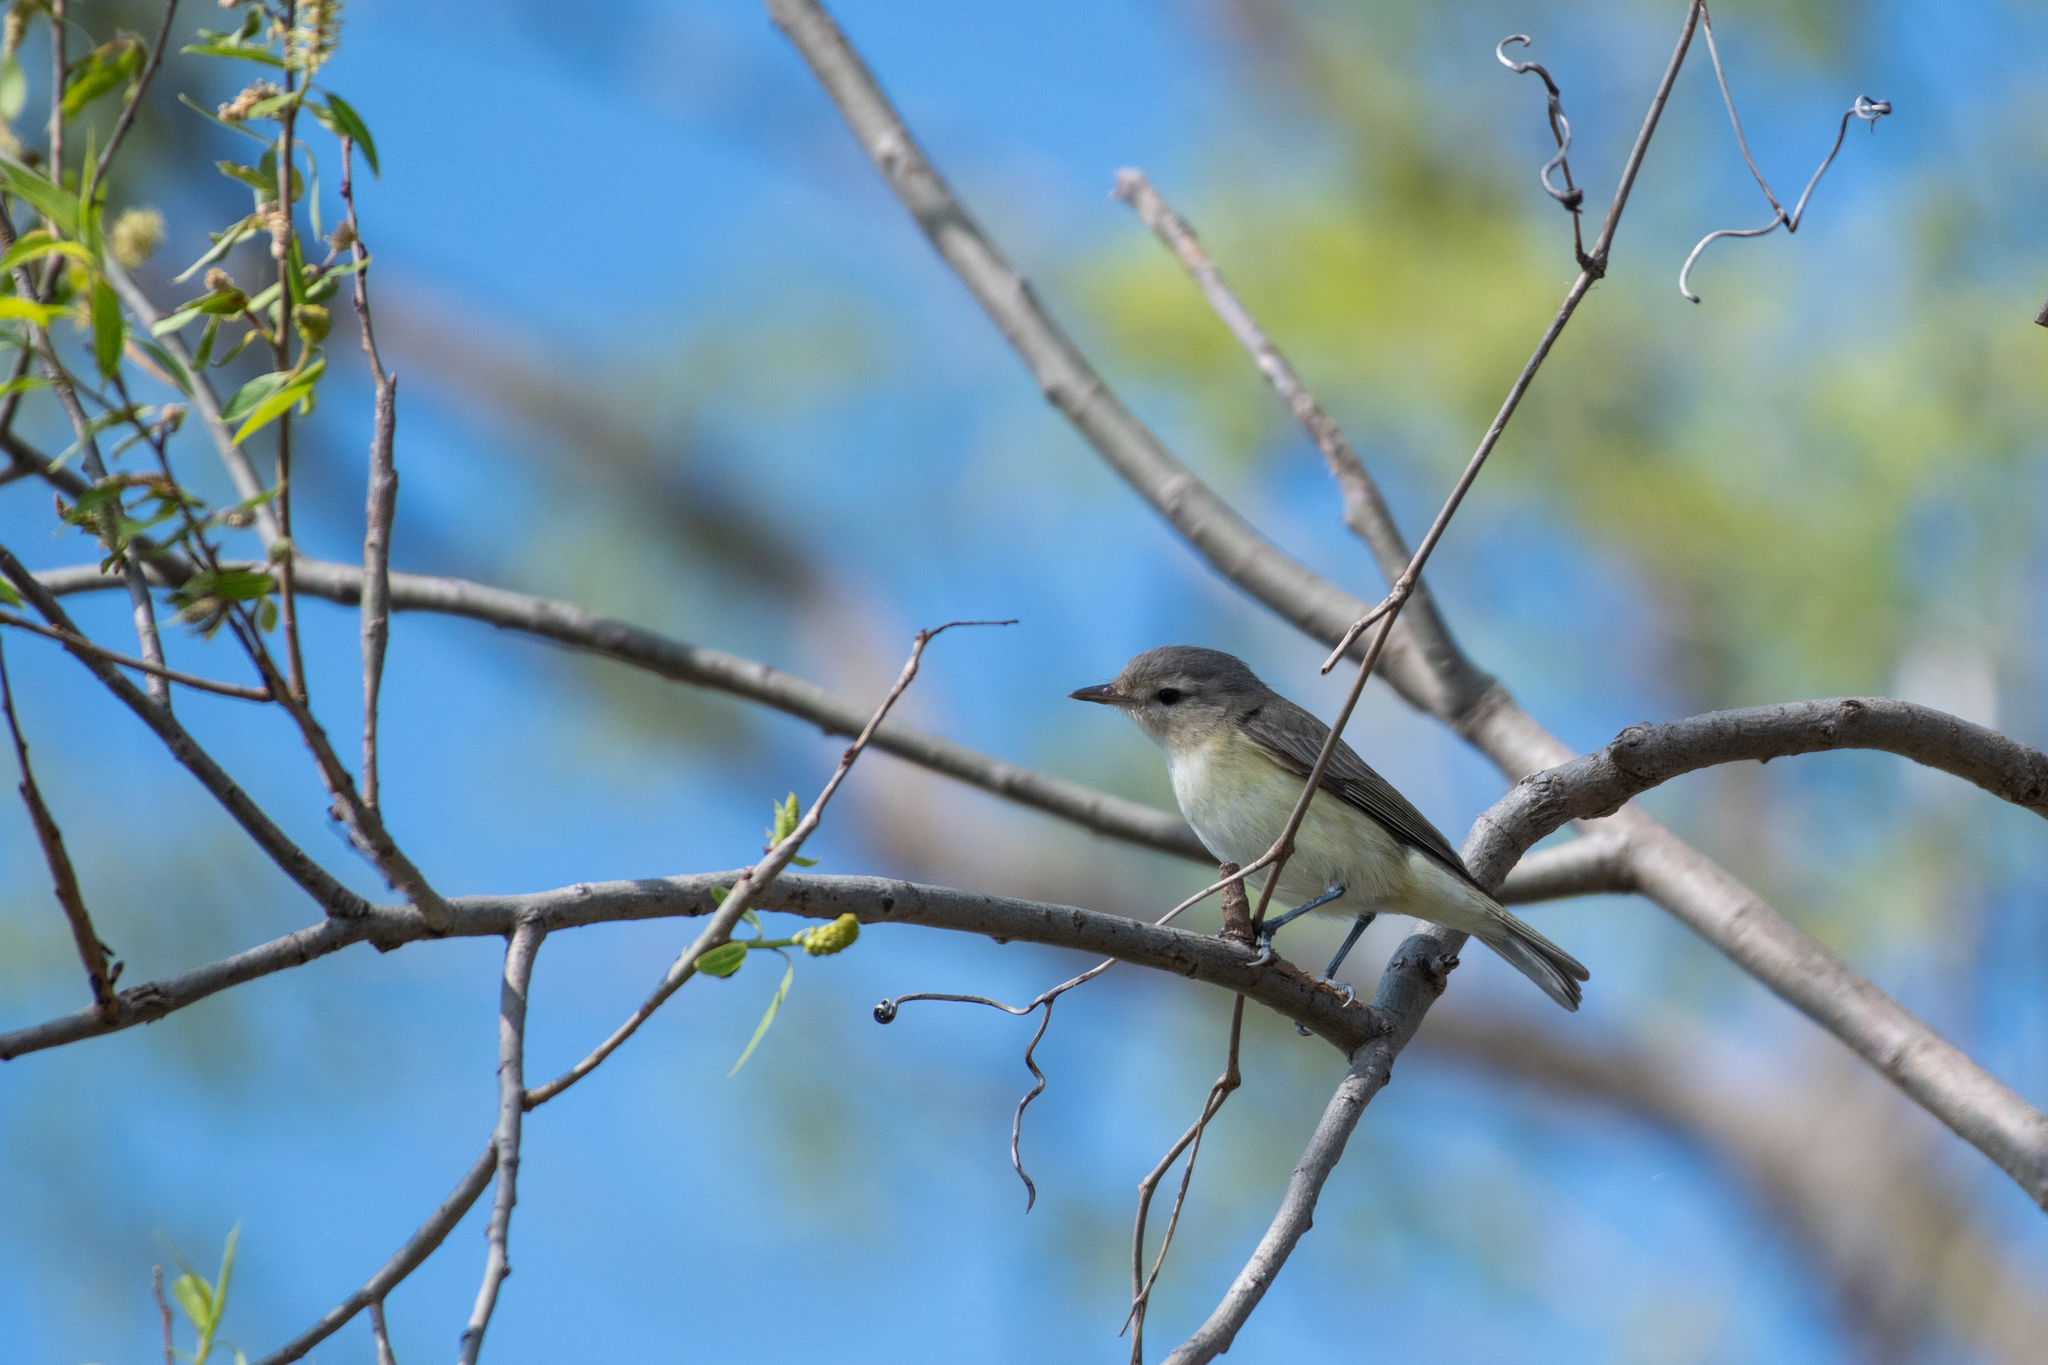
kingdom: Animalia
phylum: Chordata
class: Aves
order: Passeriformes
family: Vireonidae
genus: Vireo
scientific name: Vireo gilvus
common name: Warbling vireo
